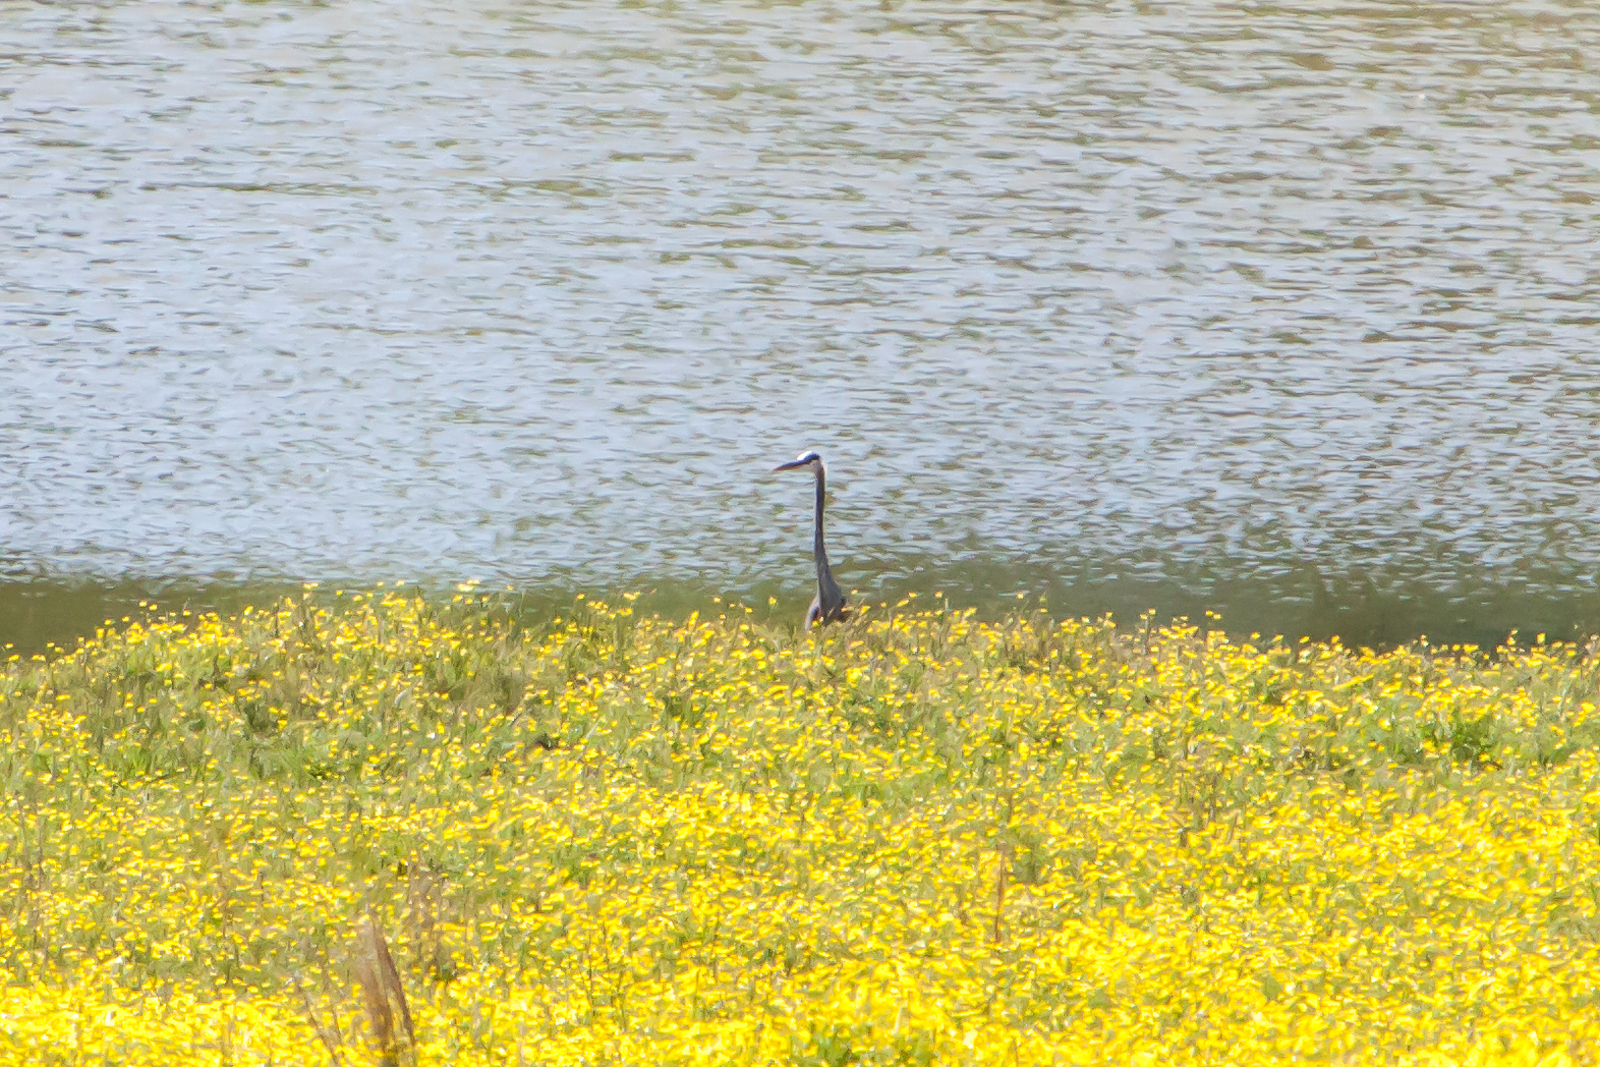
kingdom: Animalia
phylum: Chordata
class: Aves
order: Pelecaniformes
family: Ardeidae
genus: Ardea
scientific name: Ardea herodias
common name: Great blue heron
